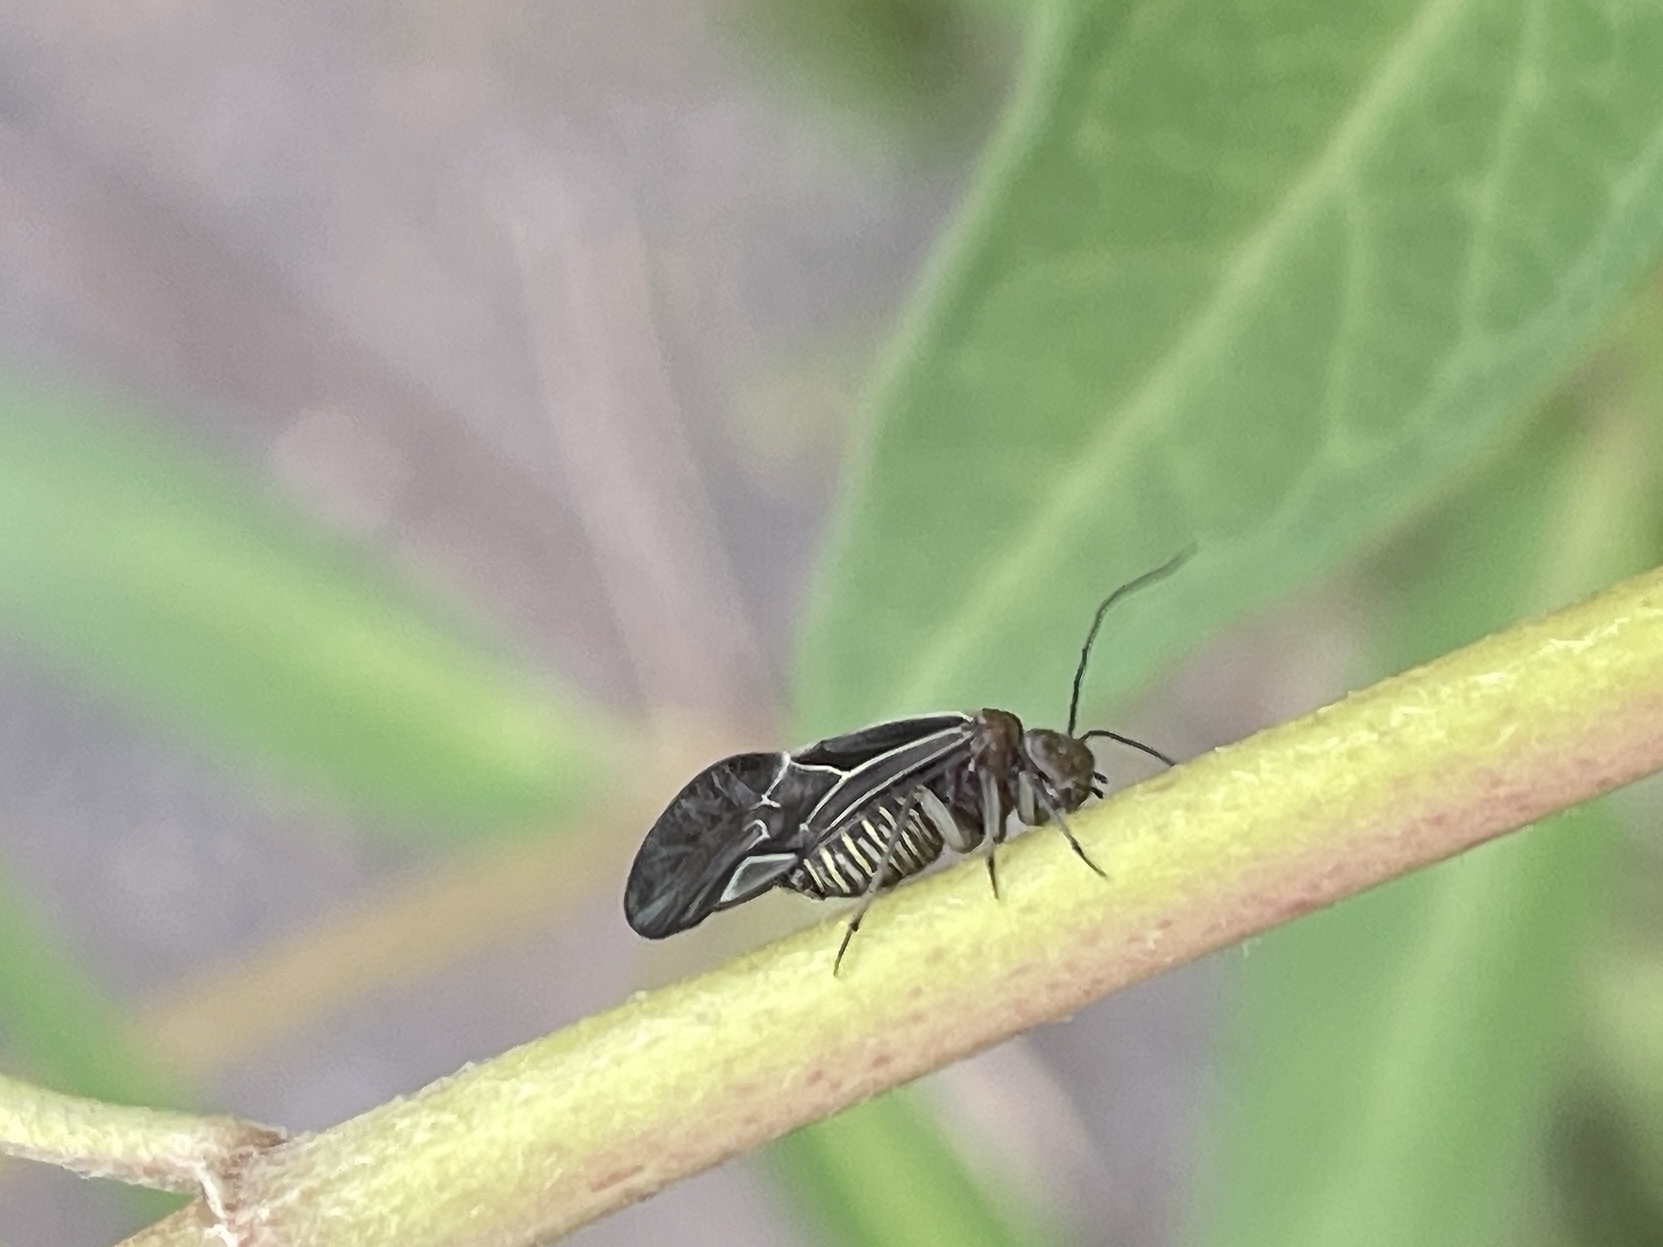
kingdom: Animalia
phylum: Arthropoda
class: Insecta
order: Psocodea
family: Psocidae
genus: Cerastipsocus
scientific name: Cerastipsocus venosus
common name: Tree cattle
